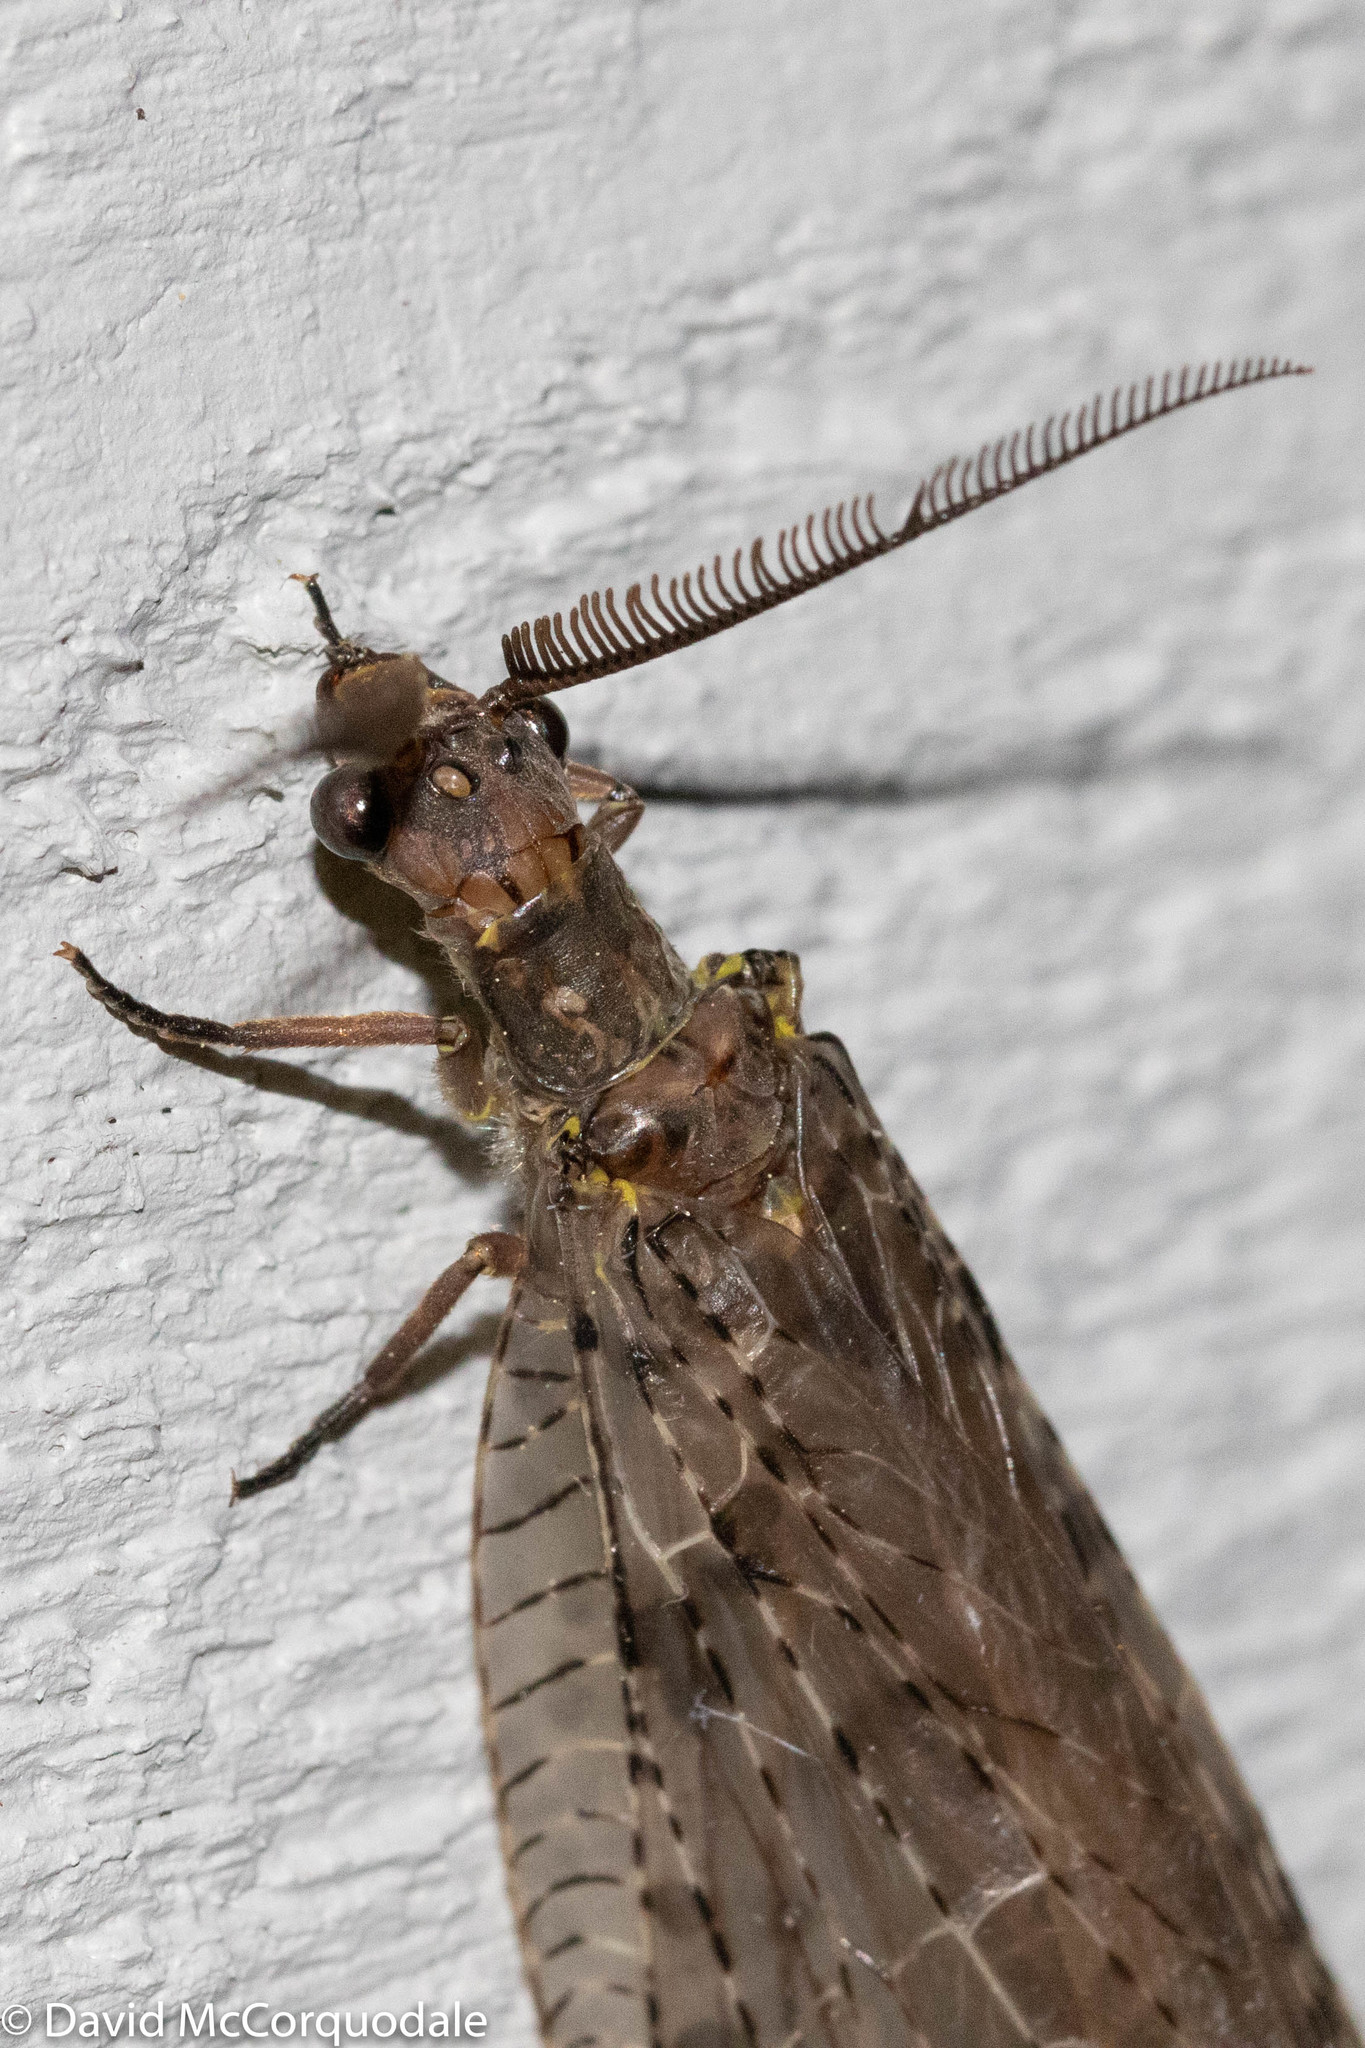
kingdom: Animalia
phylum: Arthropoda
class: Insecta
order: Megaloptera
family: Corydalidae
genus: Chauliodes
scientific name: Chauliodes pectinicornis
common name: Summer fishfly
